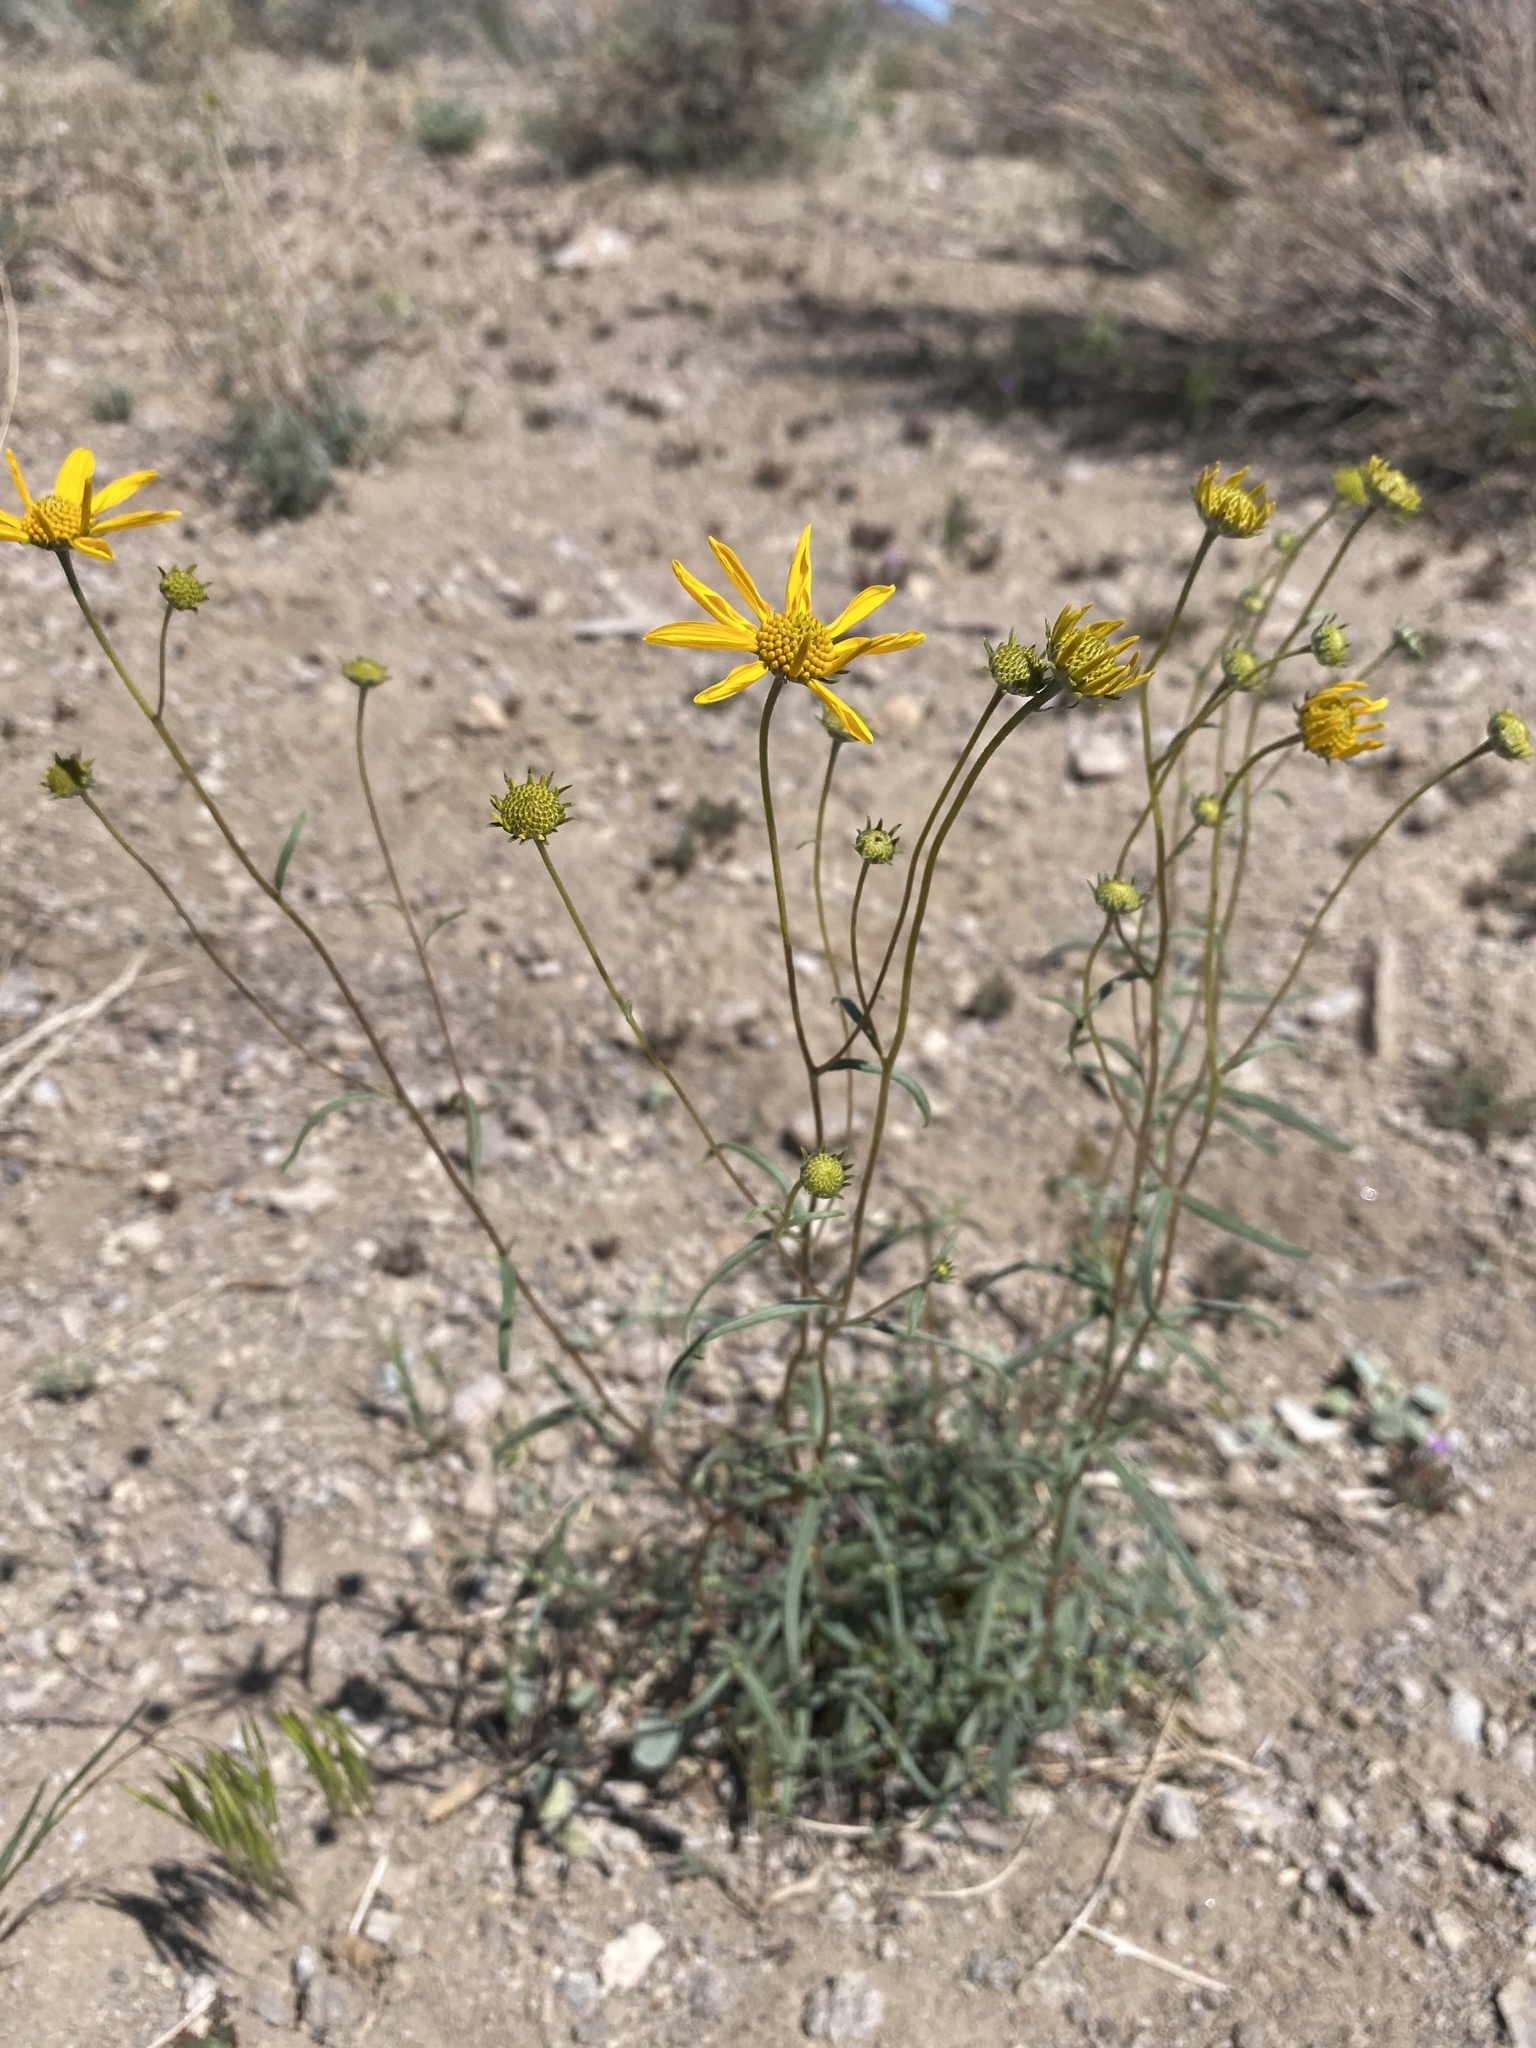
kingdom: Plantae
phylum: Tracheophyta
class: Magnoliopsida
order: Asterales
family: Asteraceae
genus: Heliomeris
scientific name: Heliomeris multiflora
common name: Showy goldeneye
